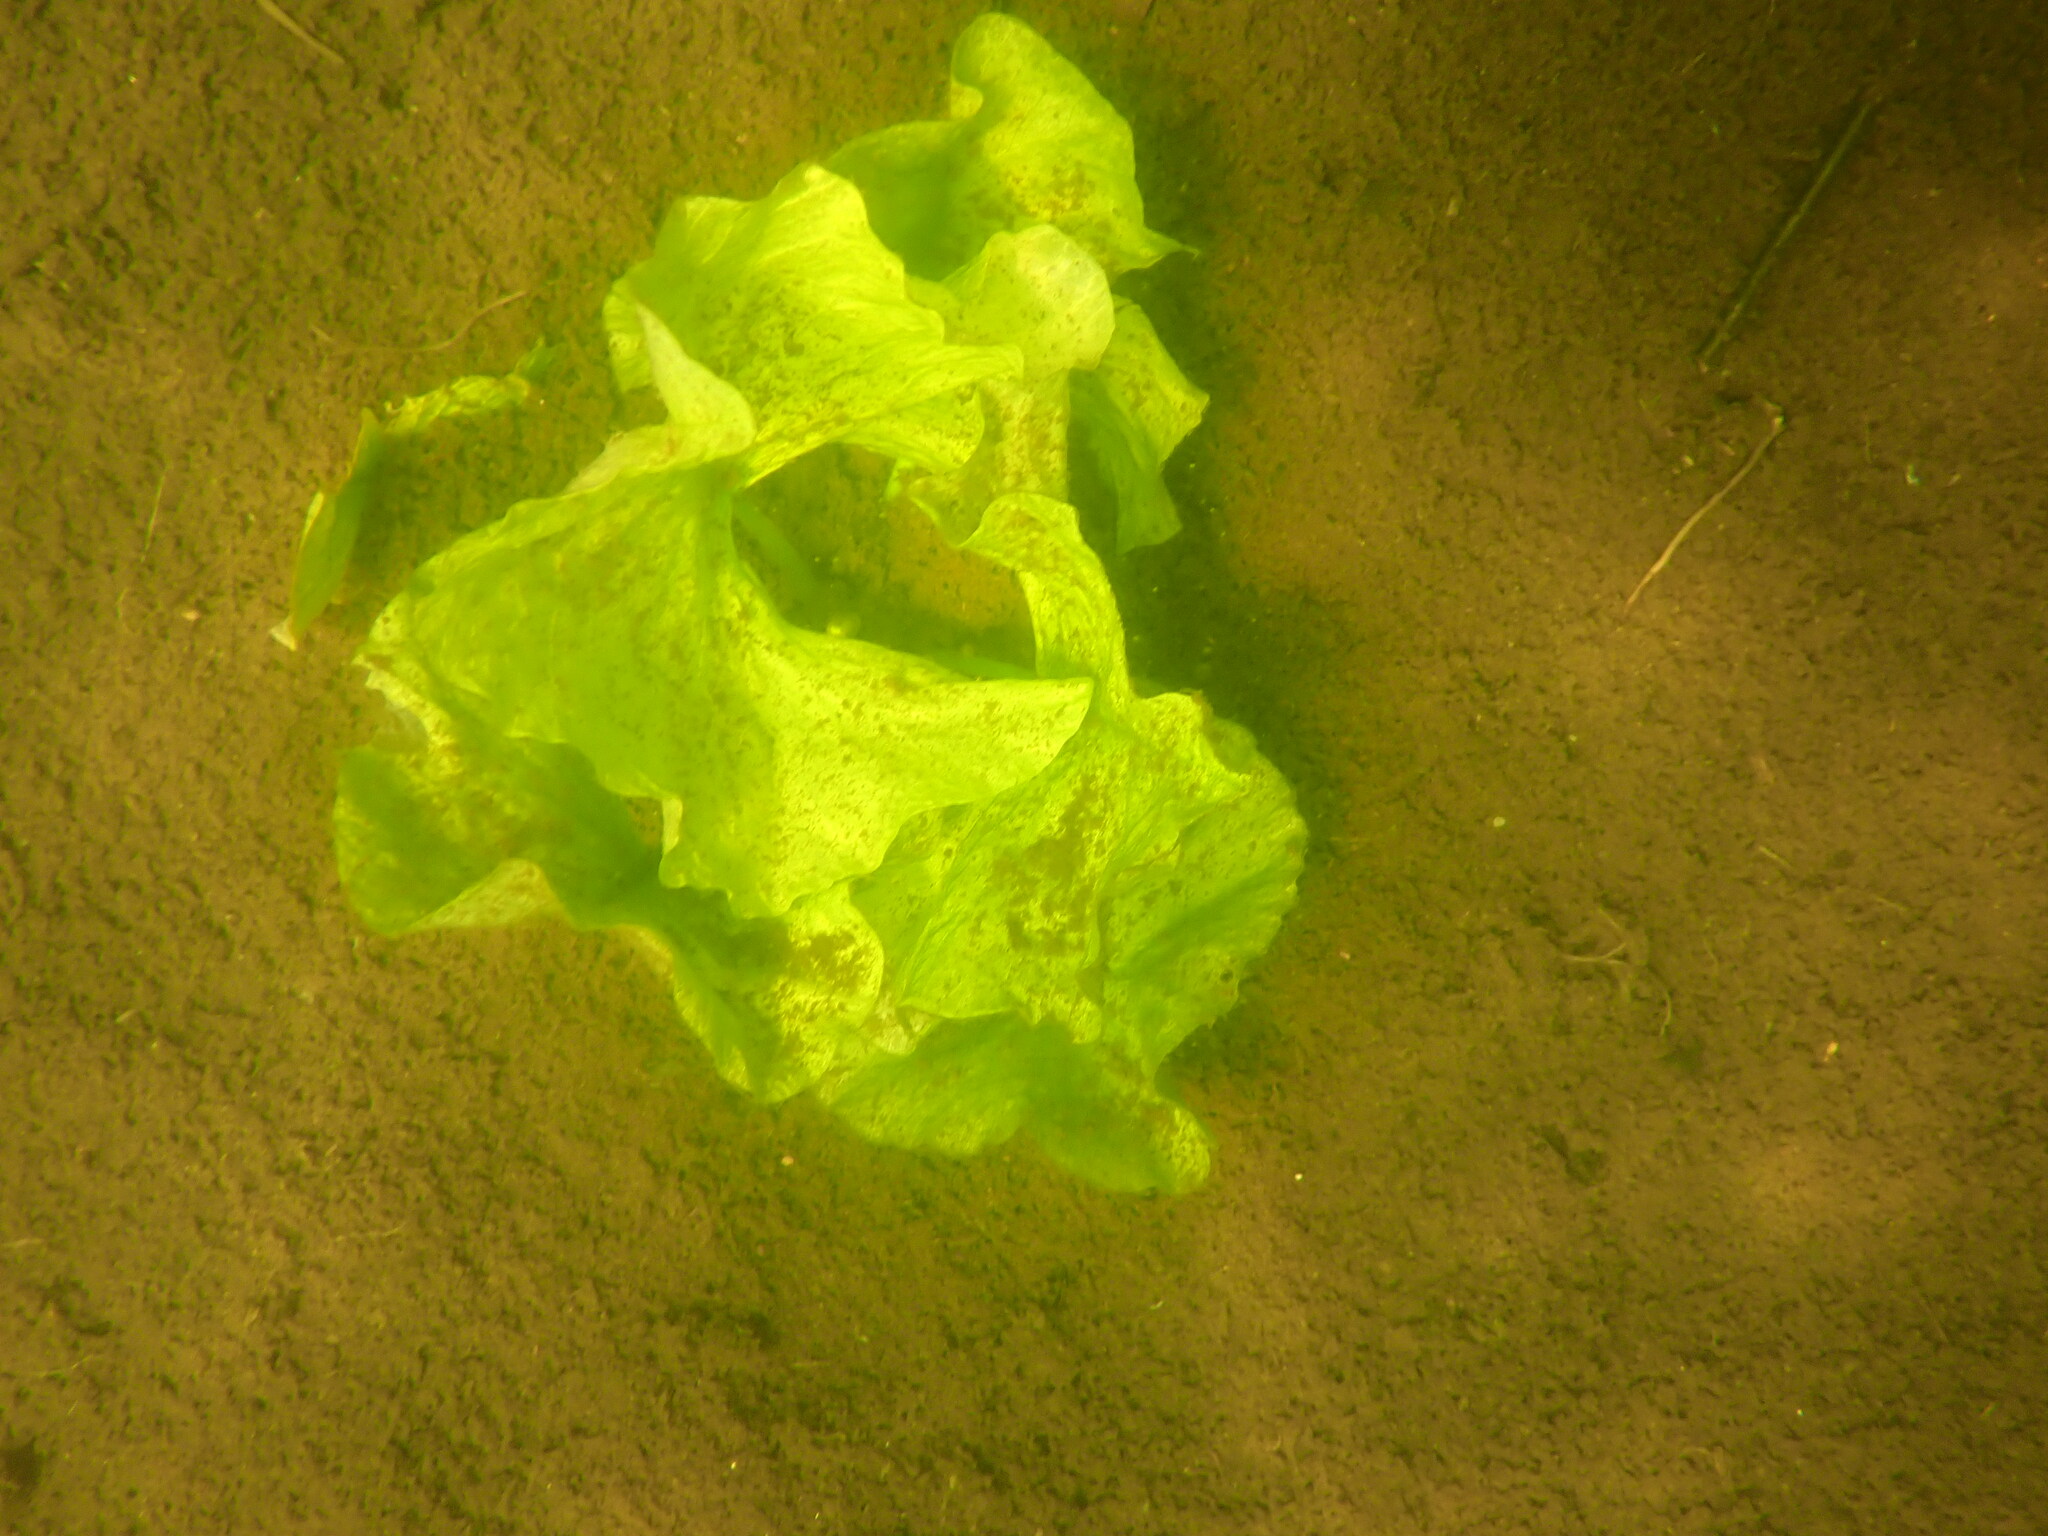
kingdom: Plantae
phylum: Tracheophyta
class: Magnoliopsida
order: Nymphaeales
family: Nymphaeaceae
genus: Nuphar
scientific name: Nuphar polysepala
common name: Rocky mountain cow-lily
